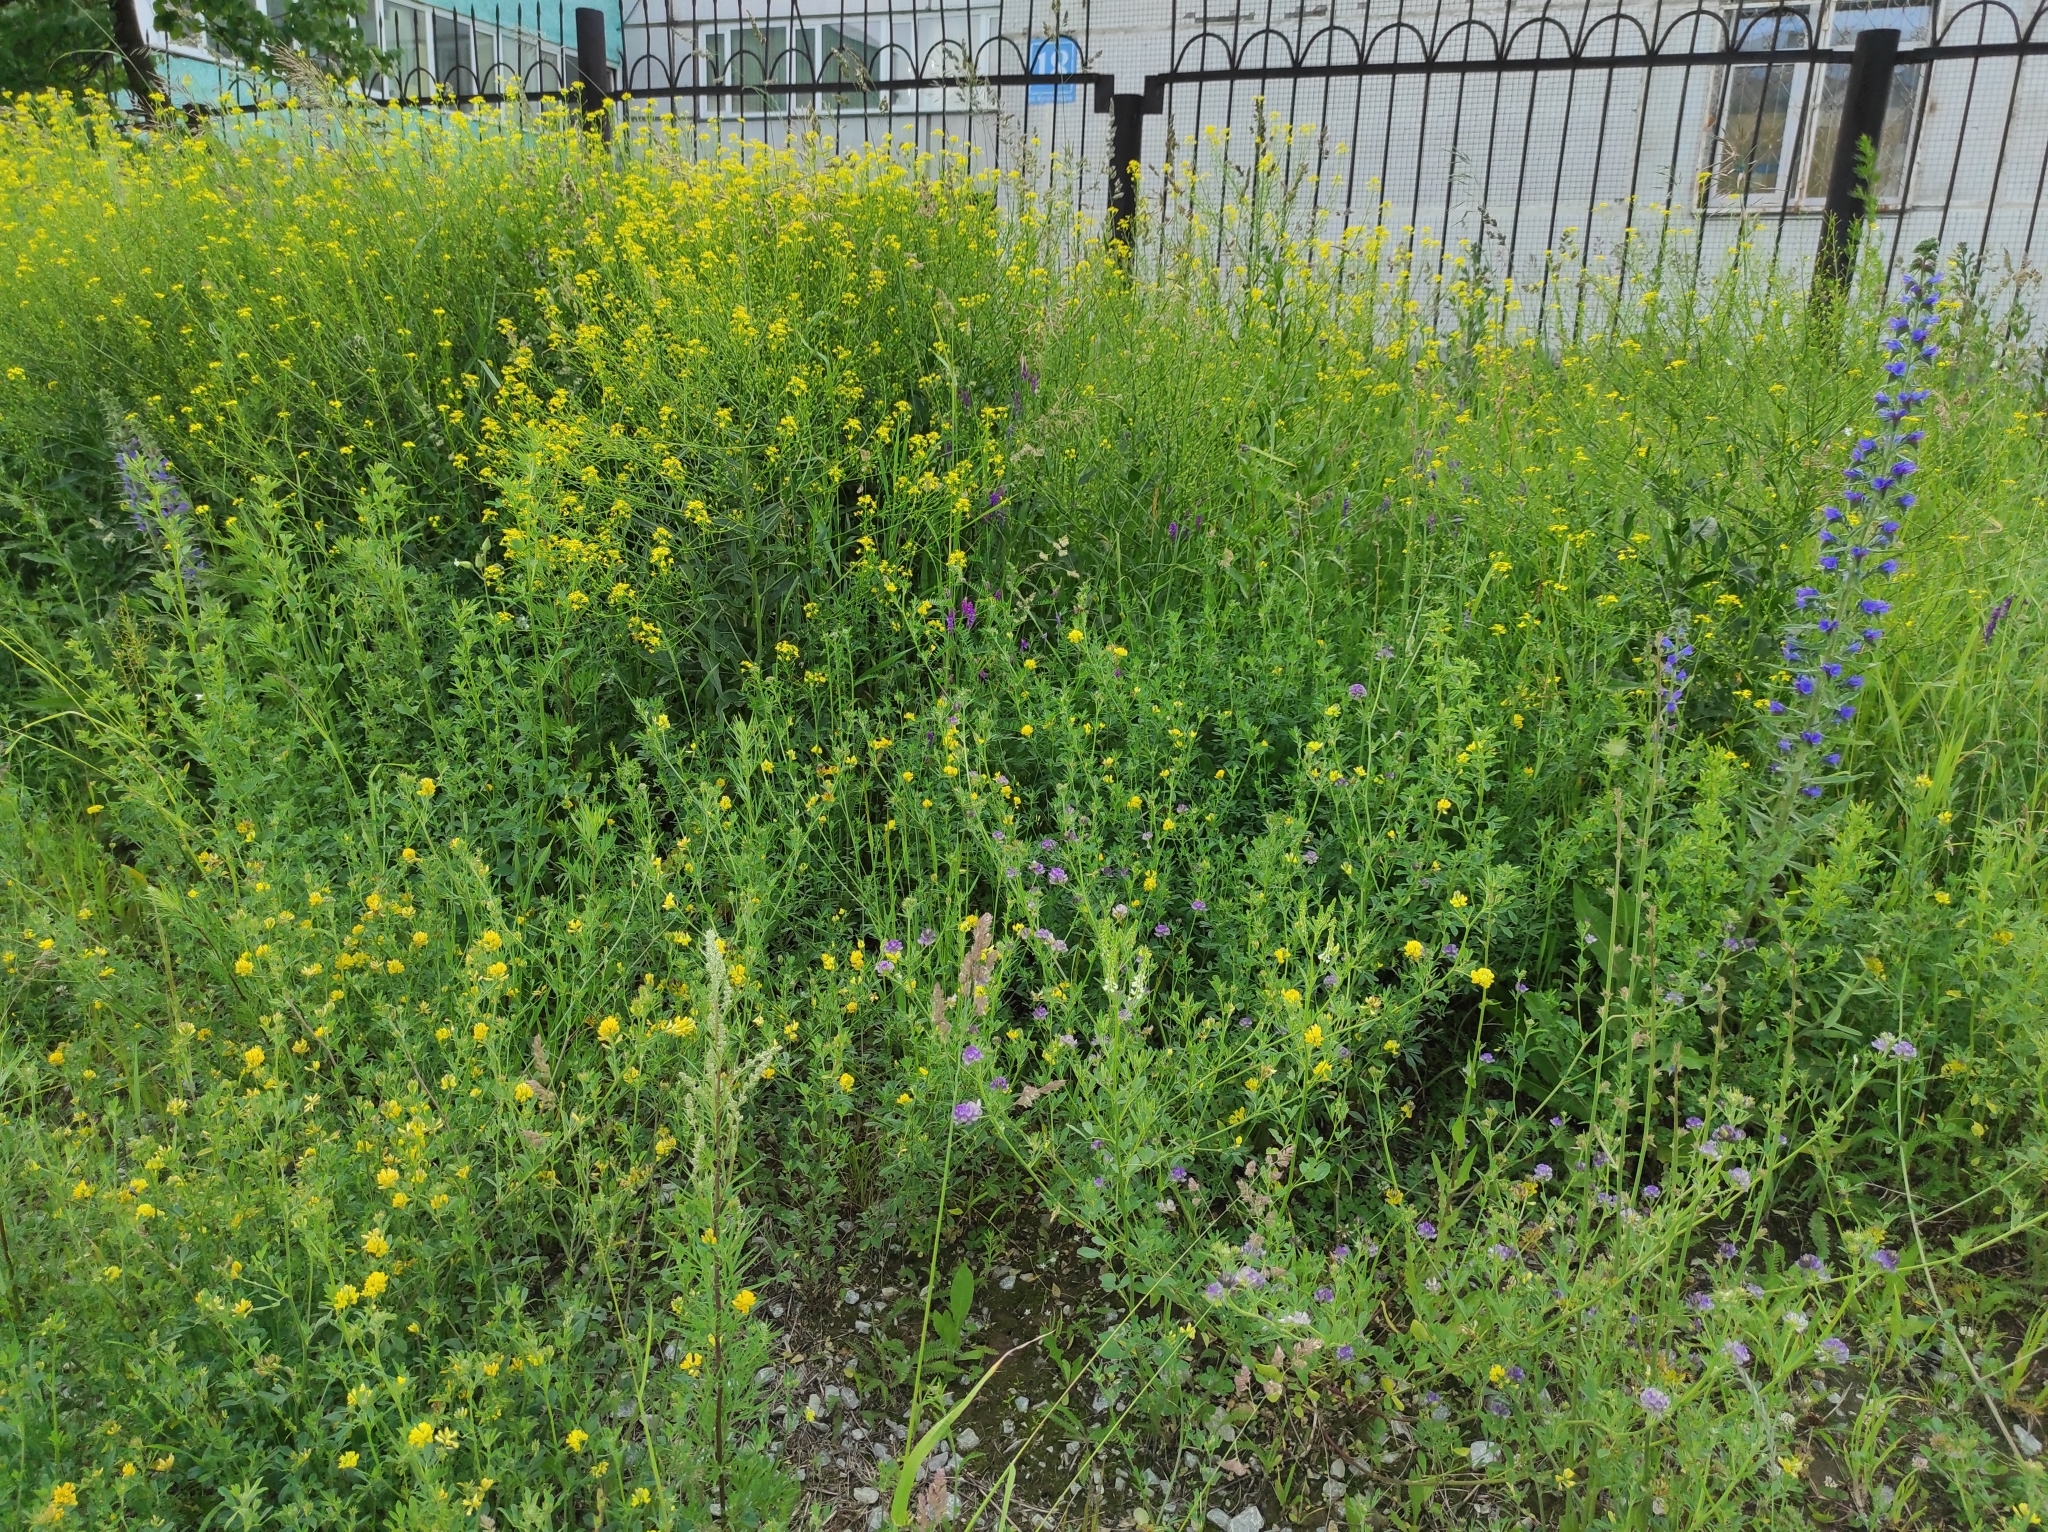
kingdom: Plantae
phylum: Tracheophyta
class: Magnoliopsida
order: Brassicales
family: Brassicaceae
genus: Sisymbrium
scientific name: Sisymbrium loeselii
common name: False london-rocket
